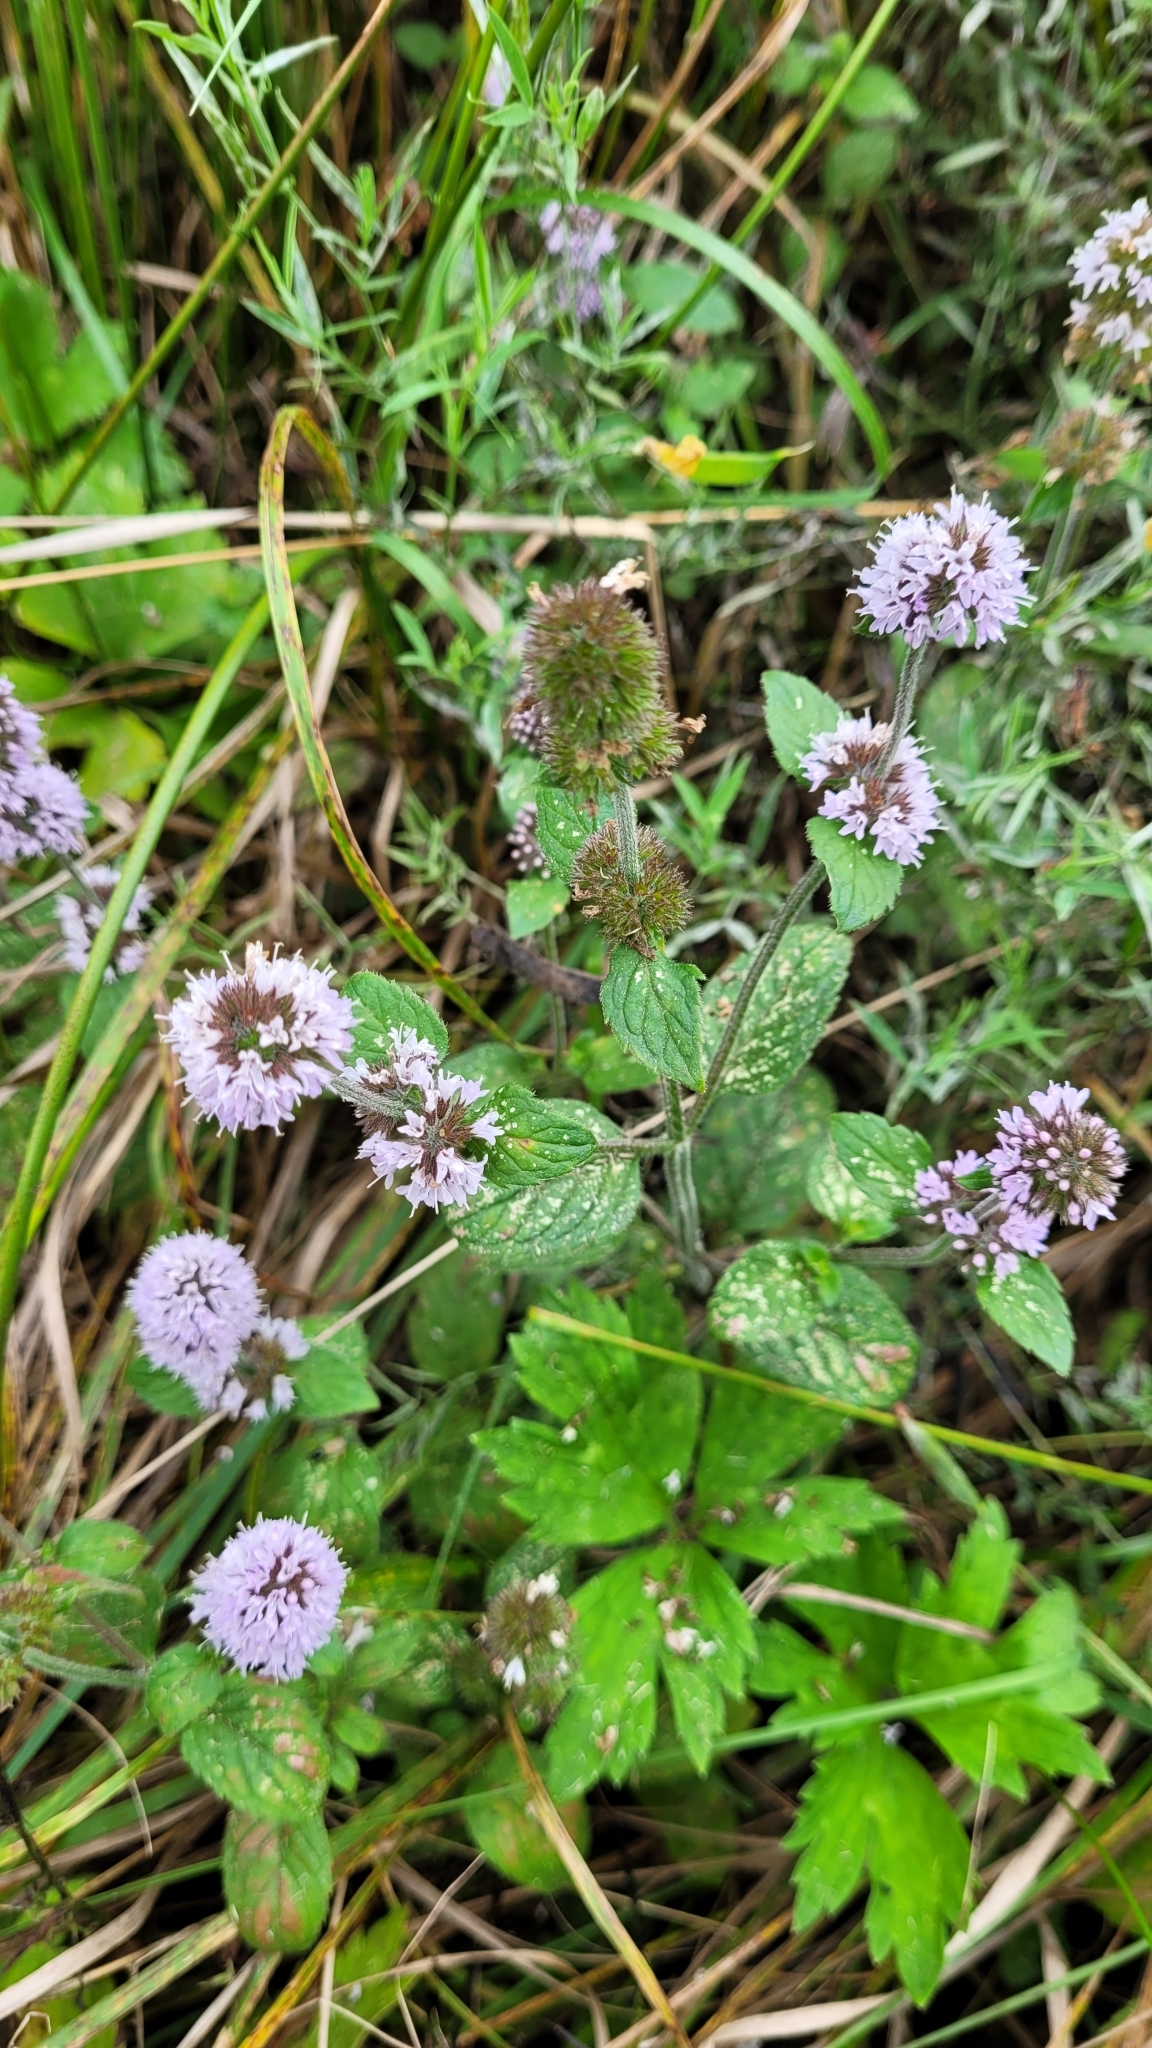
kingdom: Plantae
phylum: Tracheophyta
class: Magnoliopsida
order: Lamiales
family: Lamiaceae
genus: Mentha
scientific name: Mentha aquatica
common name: Water mint
